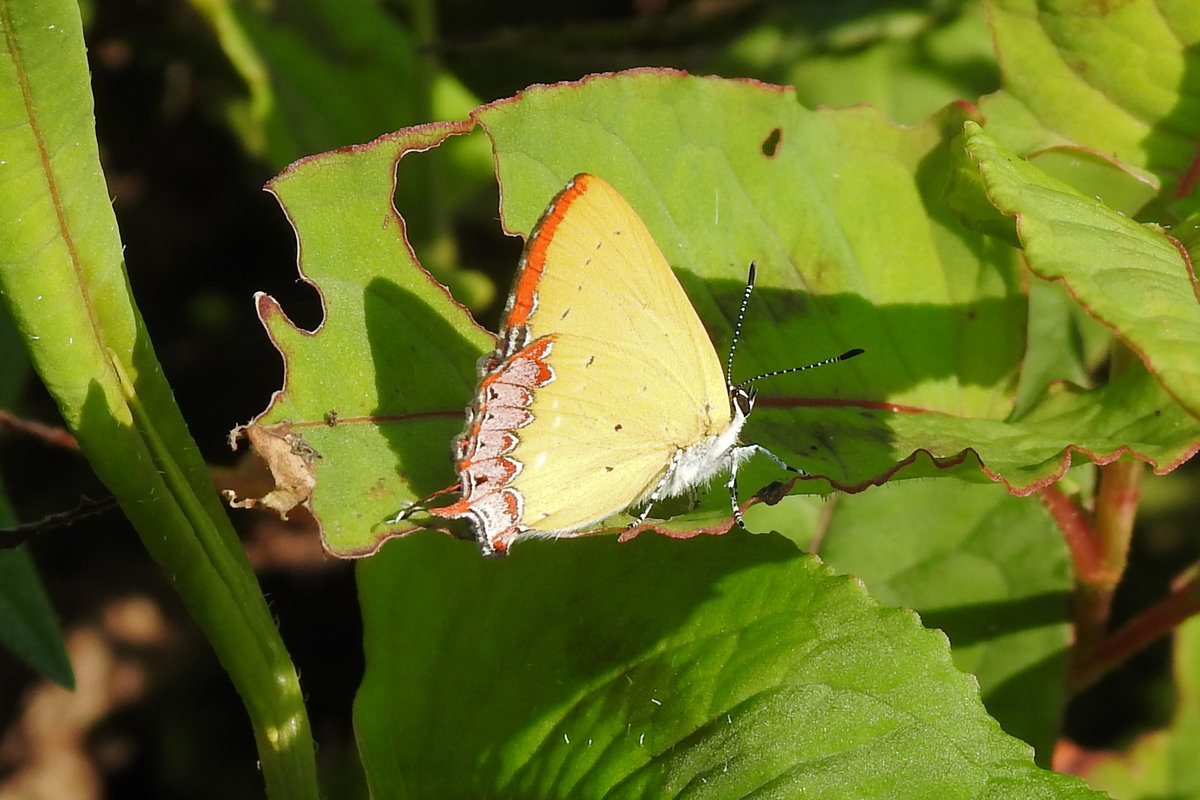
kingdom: Animalia
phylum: Arthropoda
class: Insecta
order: Lepidoptera
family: Lycaenidae
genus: Heliophorus
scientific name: Heliophorus epicles
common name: Purple sapphire
